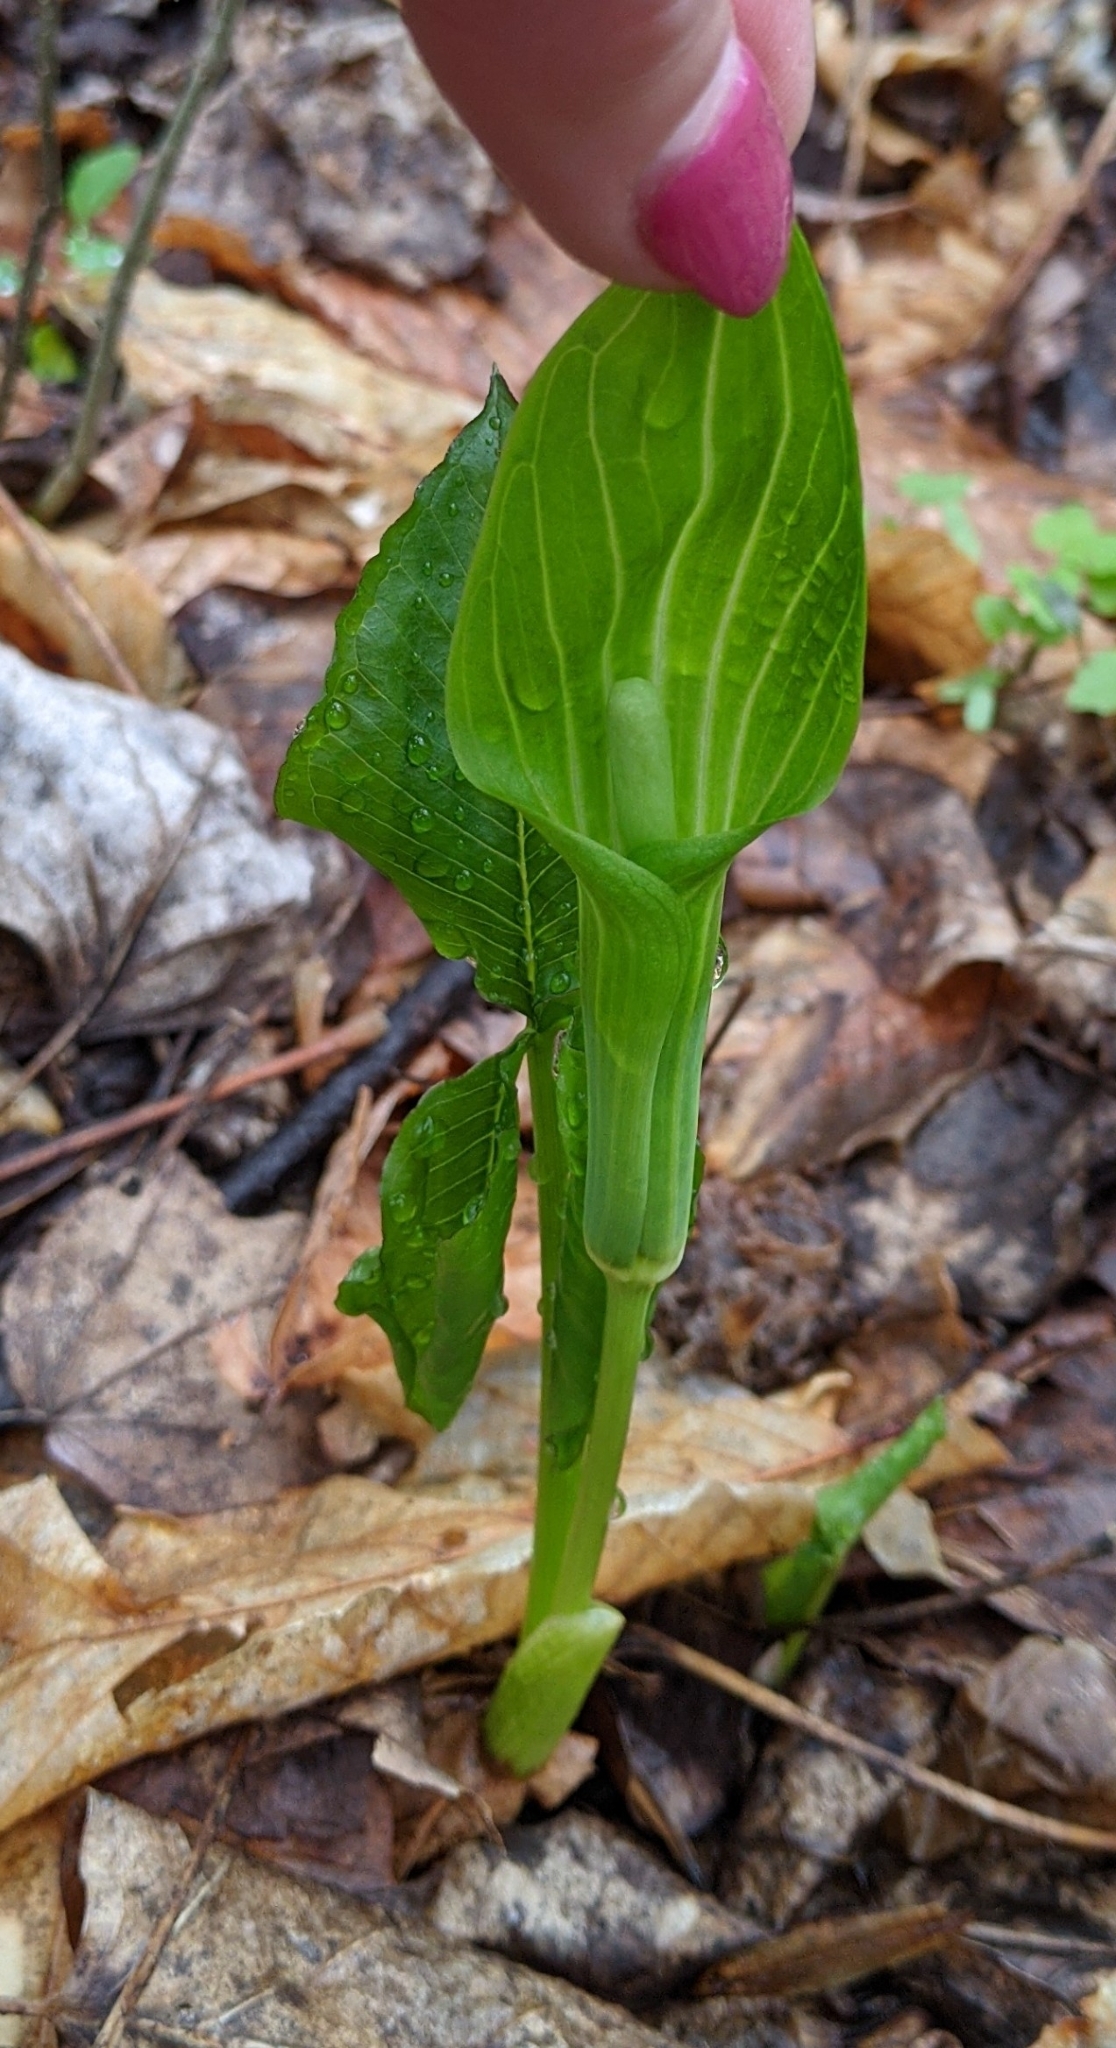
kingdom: Plantae
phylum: Tracheophyta
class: Liliopsida
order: Alismatales
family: Araceae
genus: Arisaema
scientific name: Arisaema triphyllum
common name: Jack-in-the-pulpit
